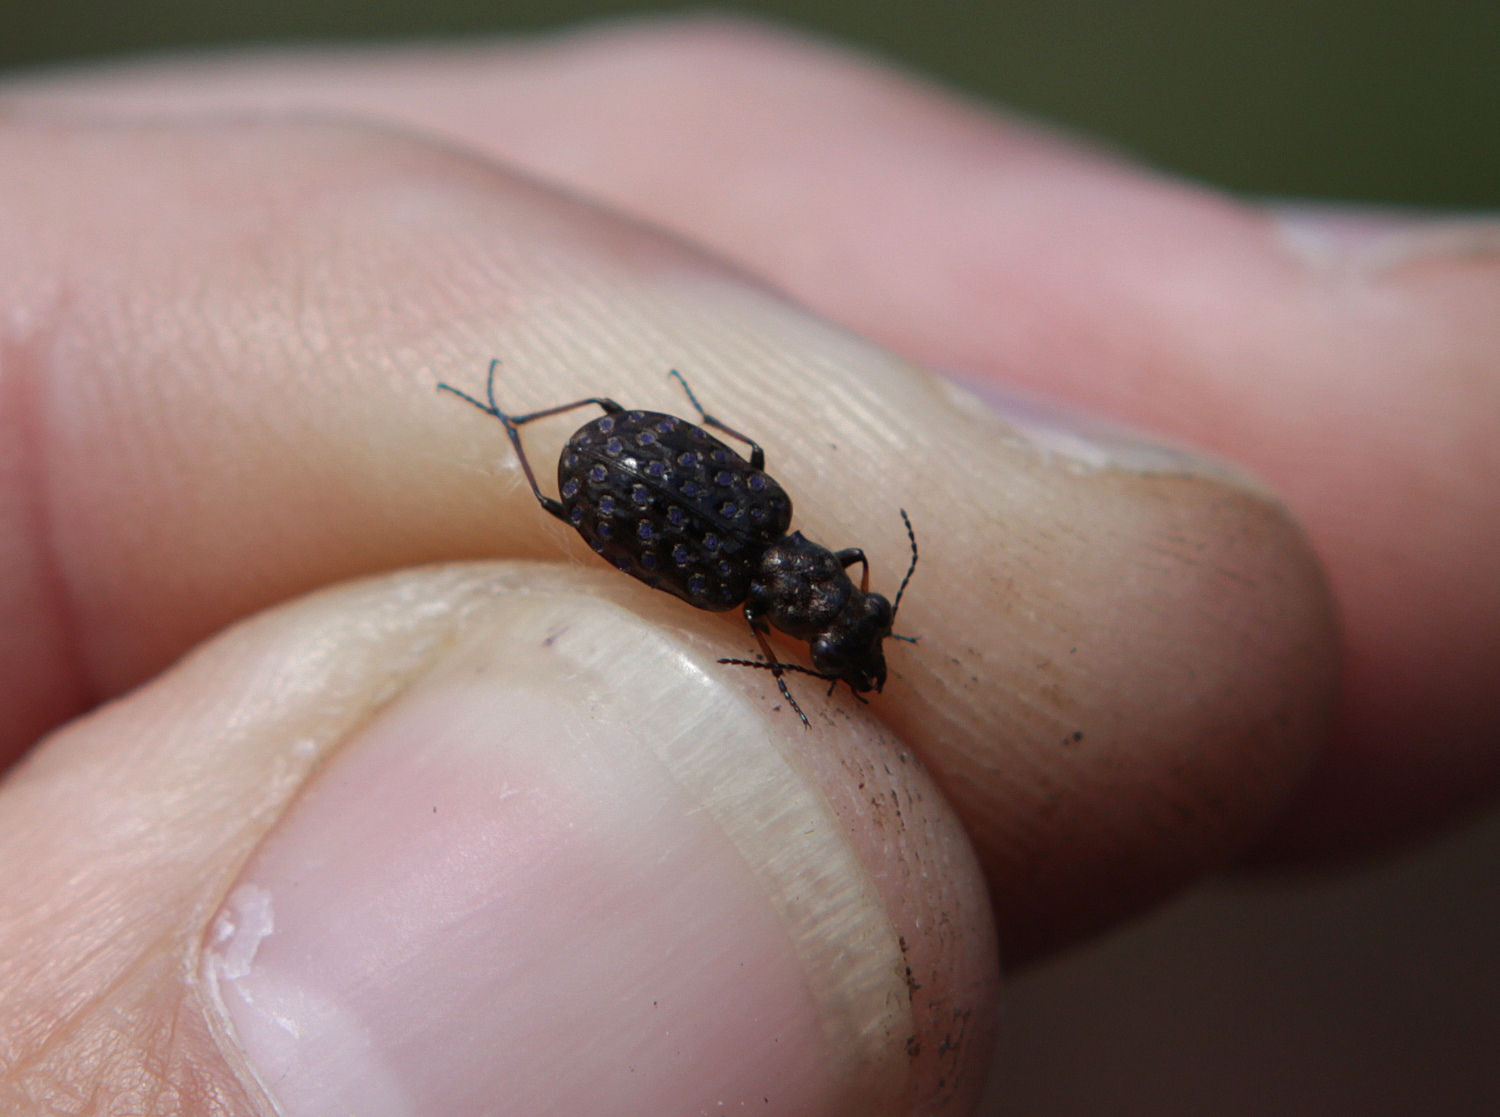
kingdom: Animalia
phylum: Arthropoda
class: Insecta
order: Coleoptera
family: Carabidae
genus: Elaphrus
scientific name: Elaphrus cupreus
